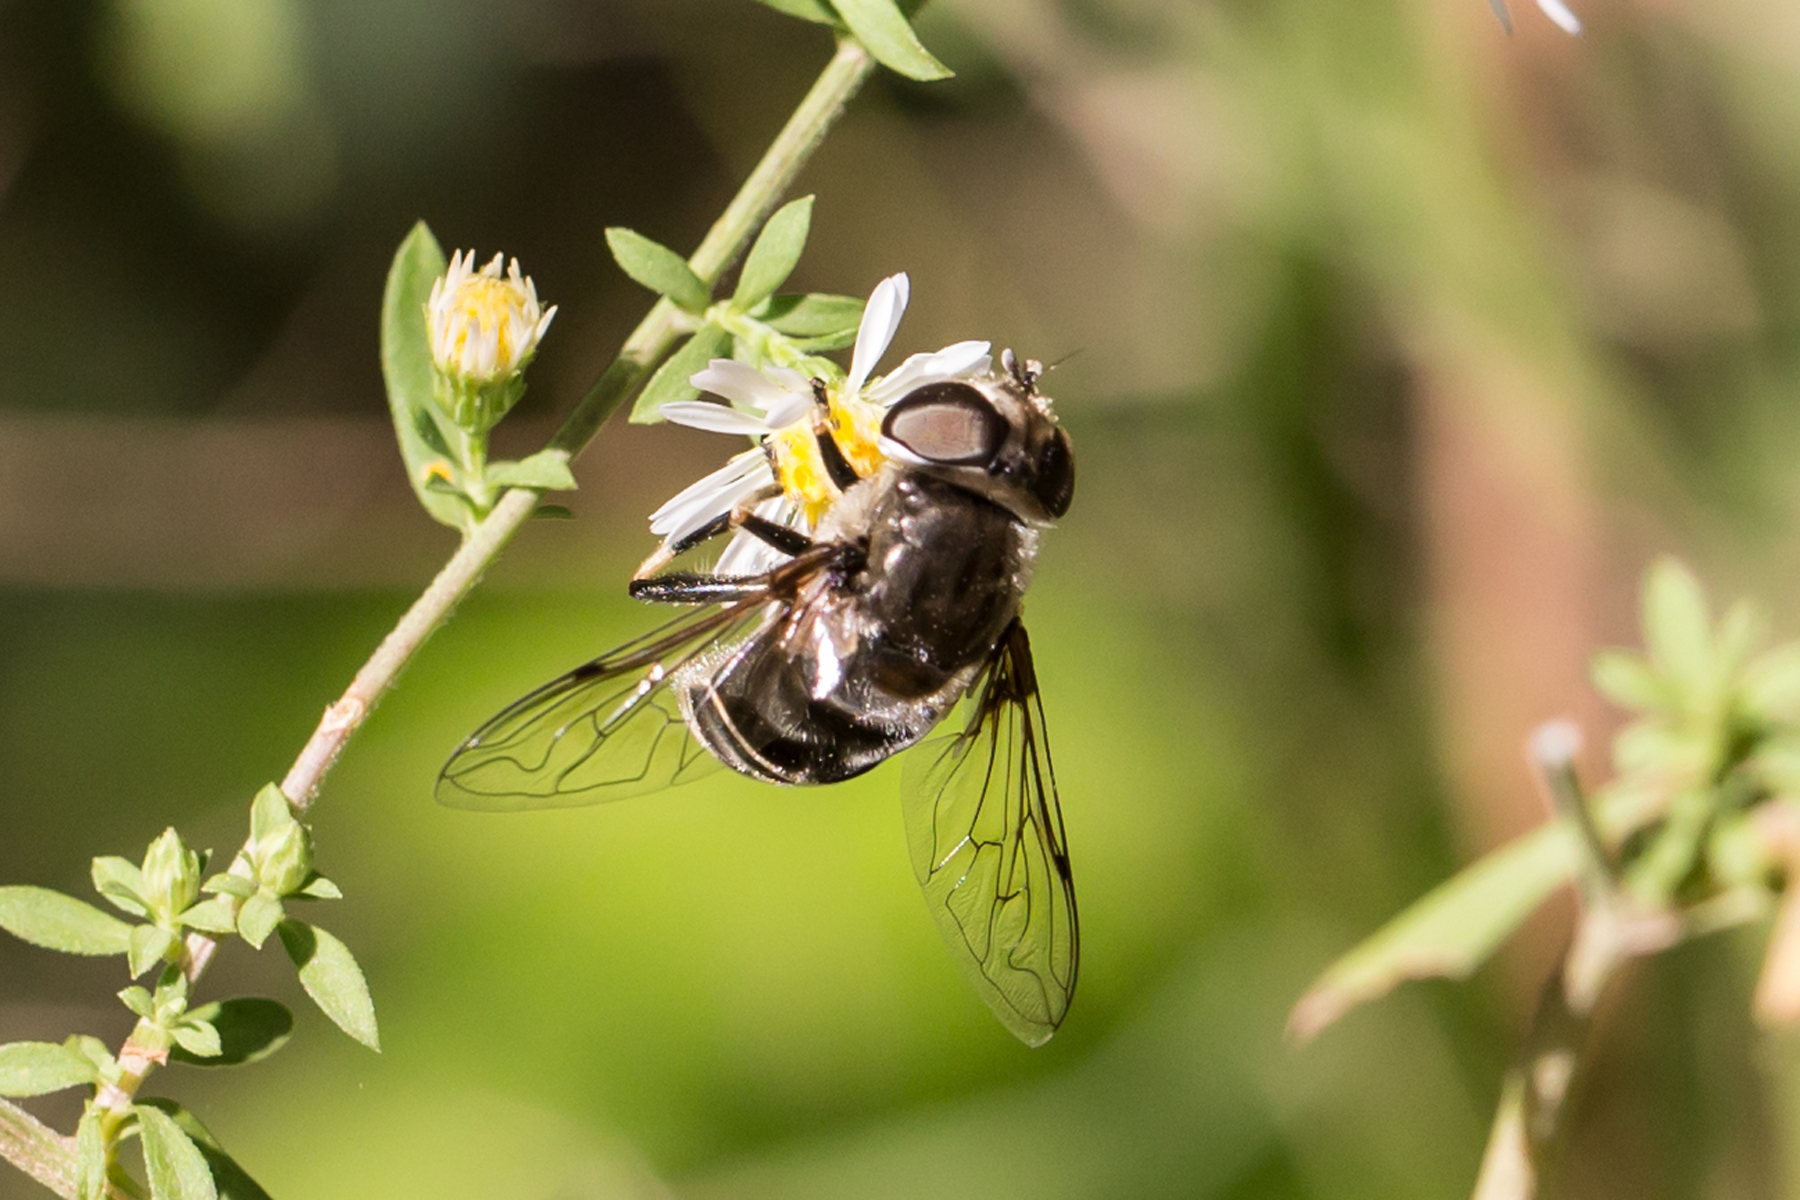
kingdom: Animalia
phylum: Arthropoda
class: Insecta
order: Diptera
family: Syrphidae
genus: Eristalis
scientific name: Eristalis dimidiata
